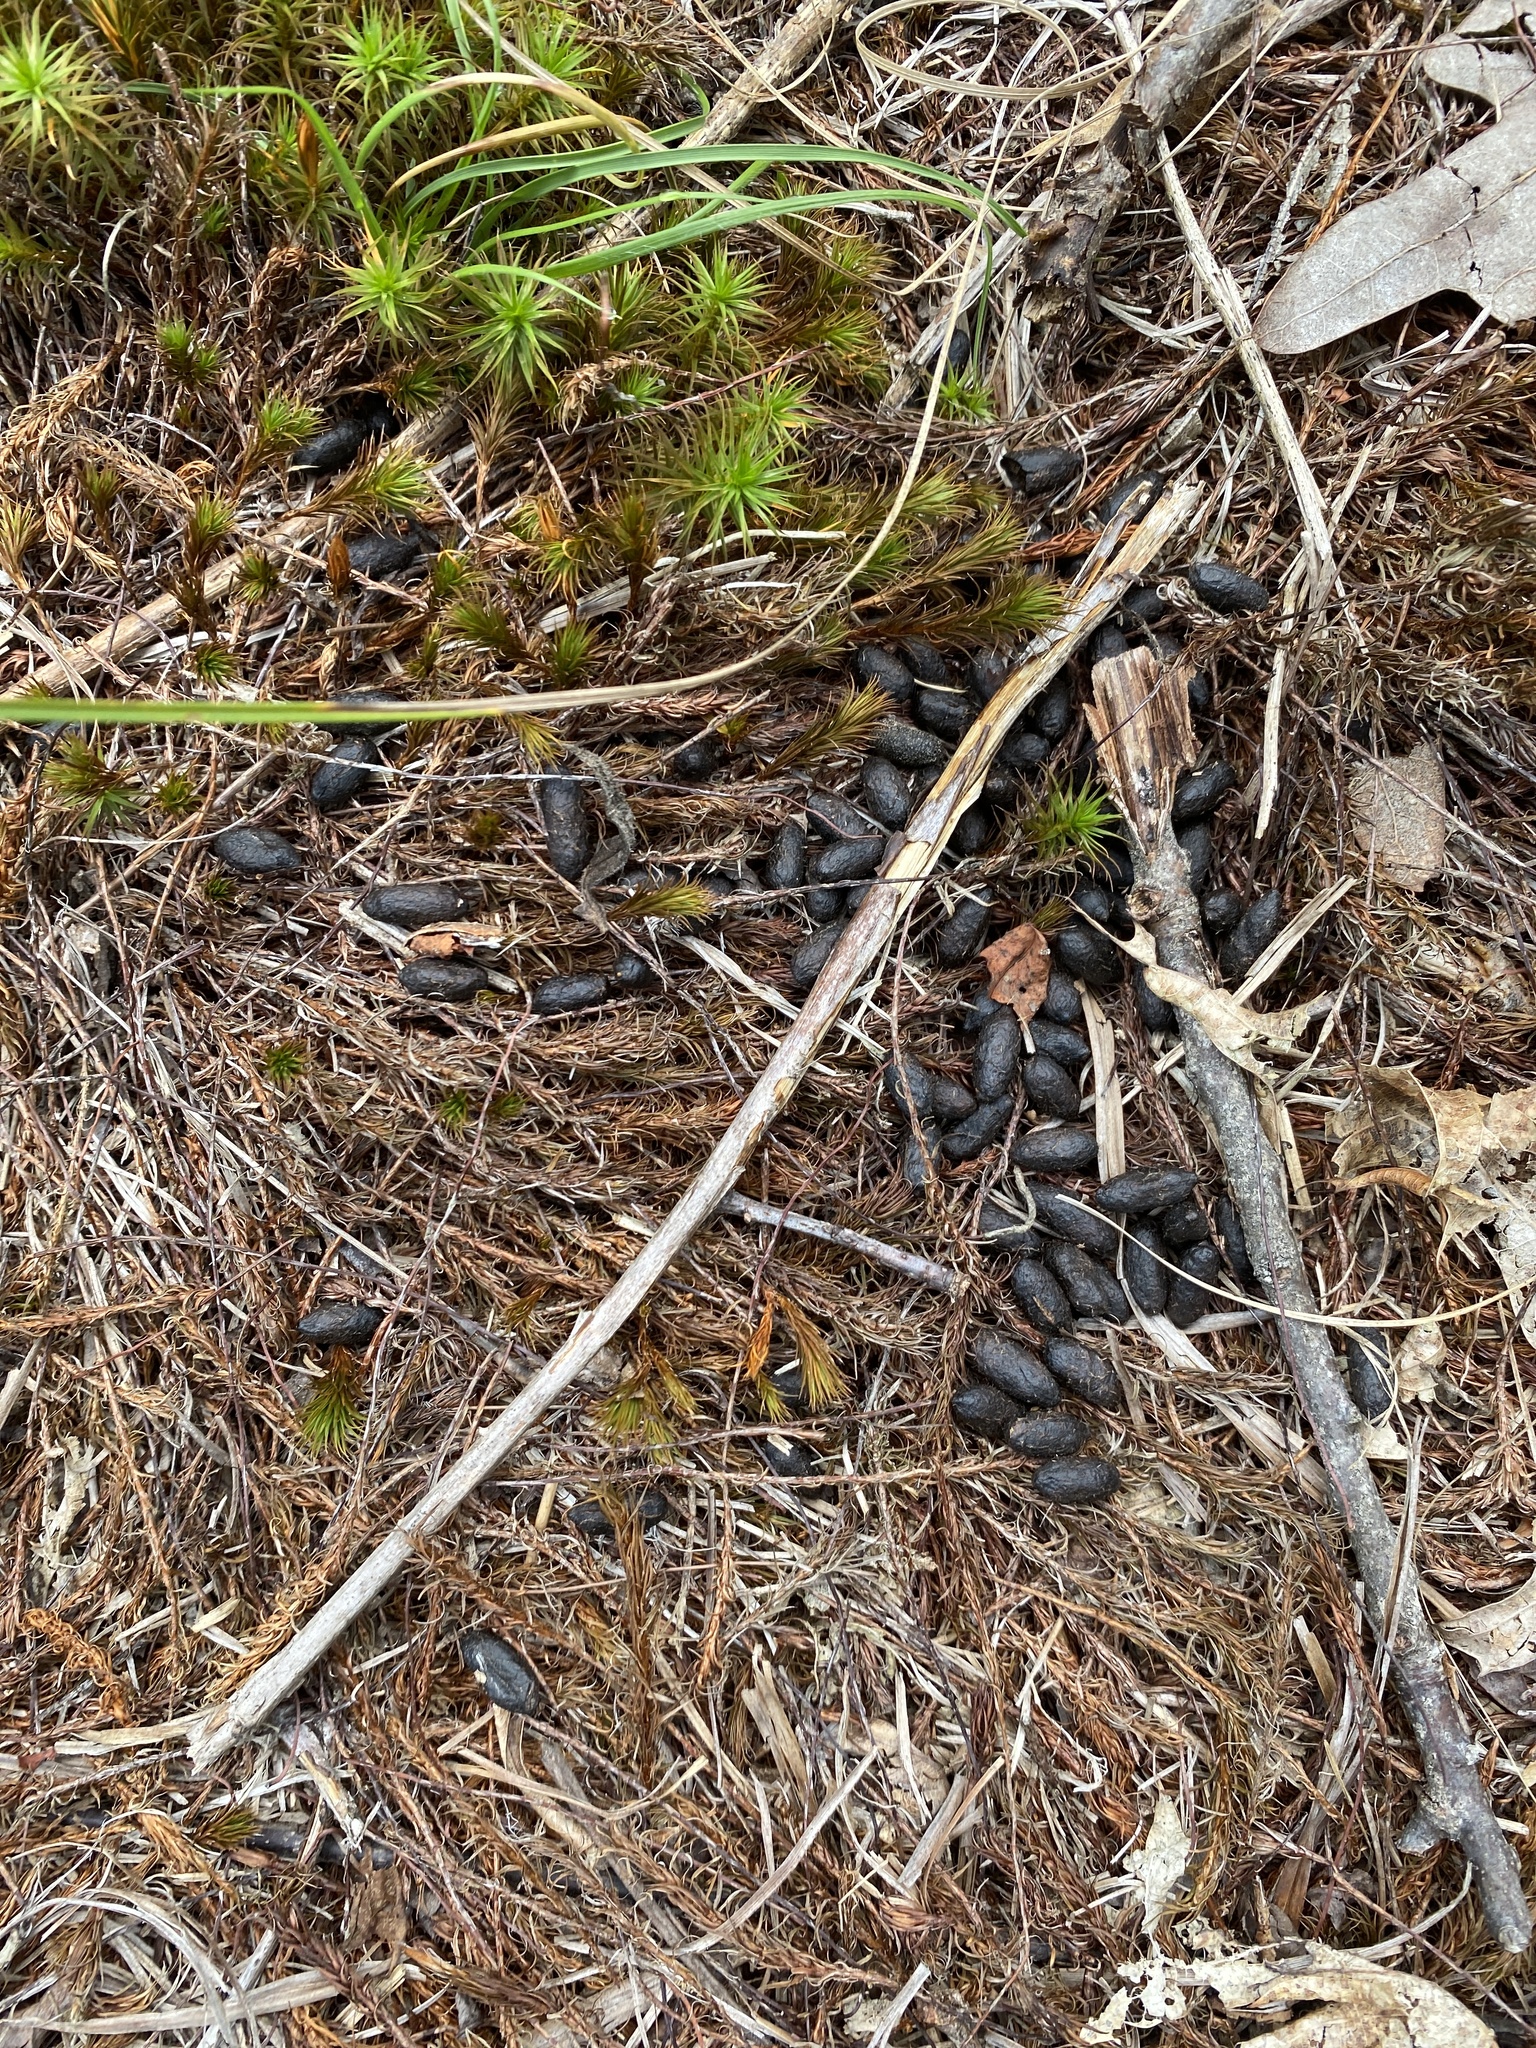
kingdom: Animalia
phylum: Chordata
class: Mammalia
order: Artiodactyla
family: Cervidae
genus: Odocoileus
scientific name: Odocoileus virginianus
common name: White-tailed deer
